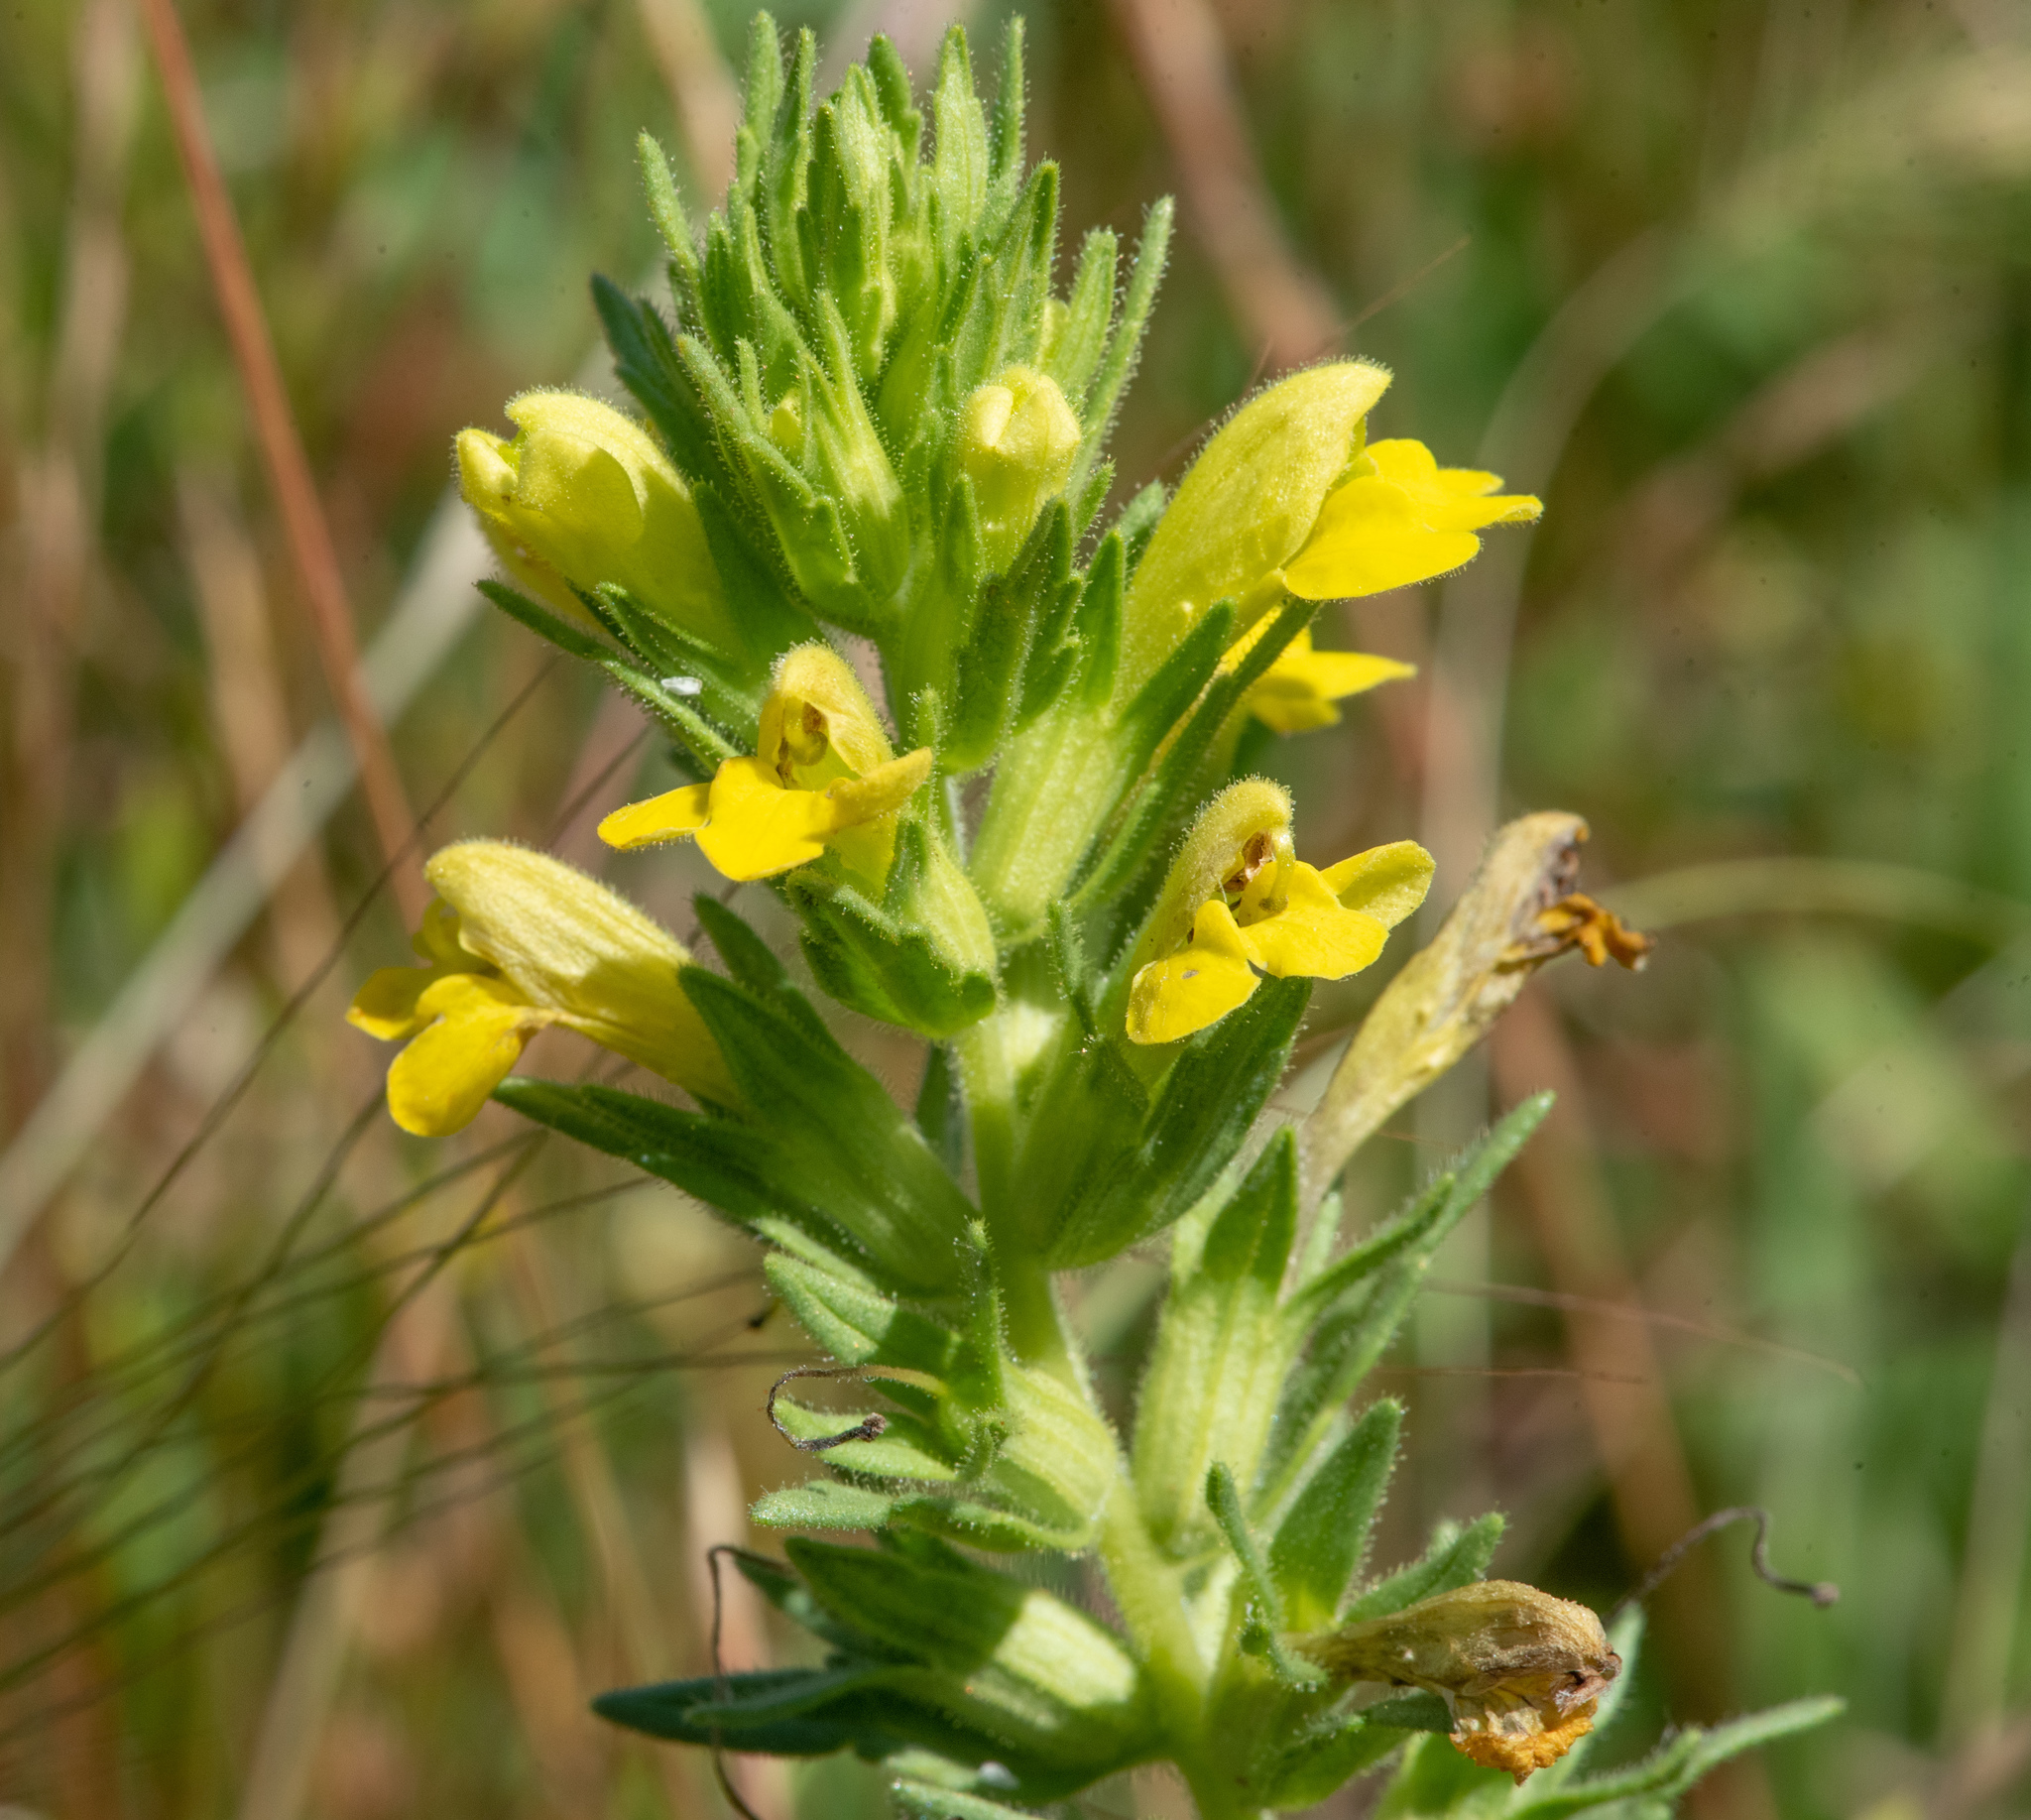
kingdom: Plantae
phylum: Tracheophyta
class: Magnoliopsida
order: Lamiales
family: Orobanchaceae
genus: Bellardia
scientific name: Bellardia viscosa
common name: Sticky parentucellia
